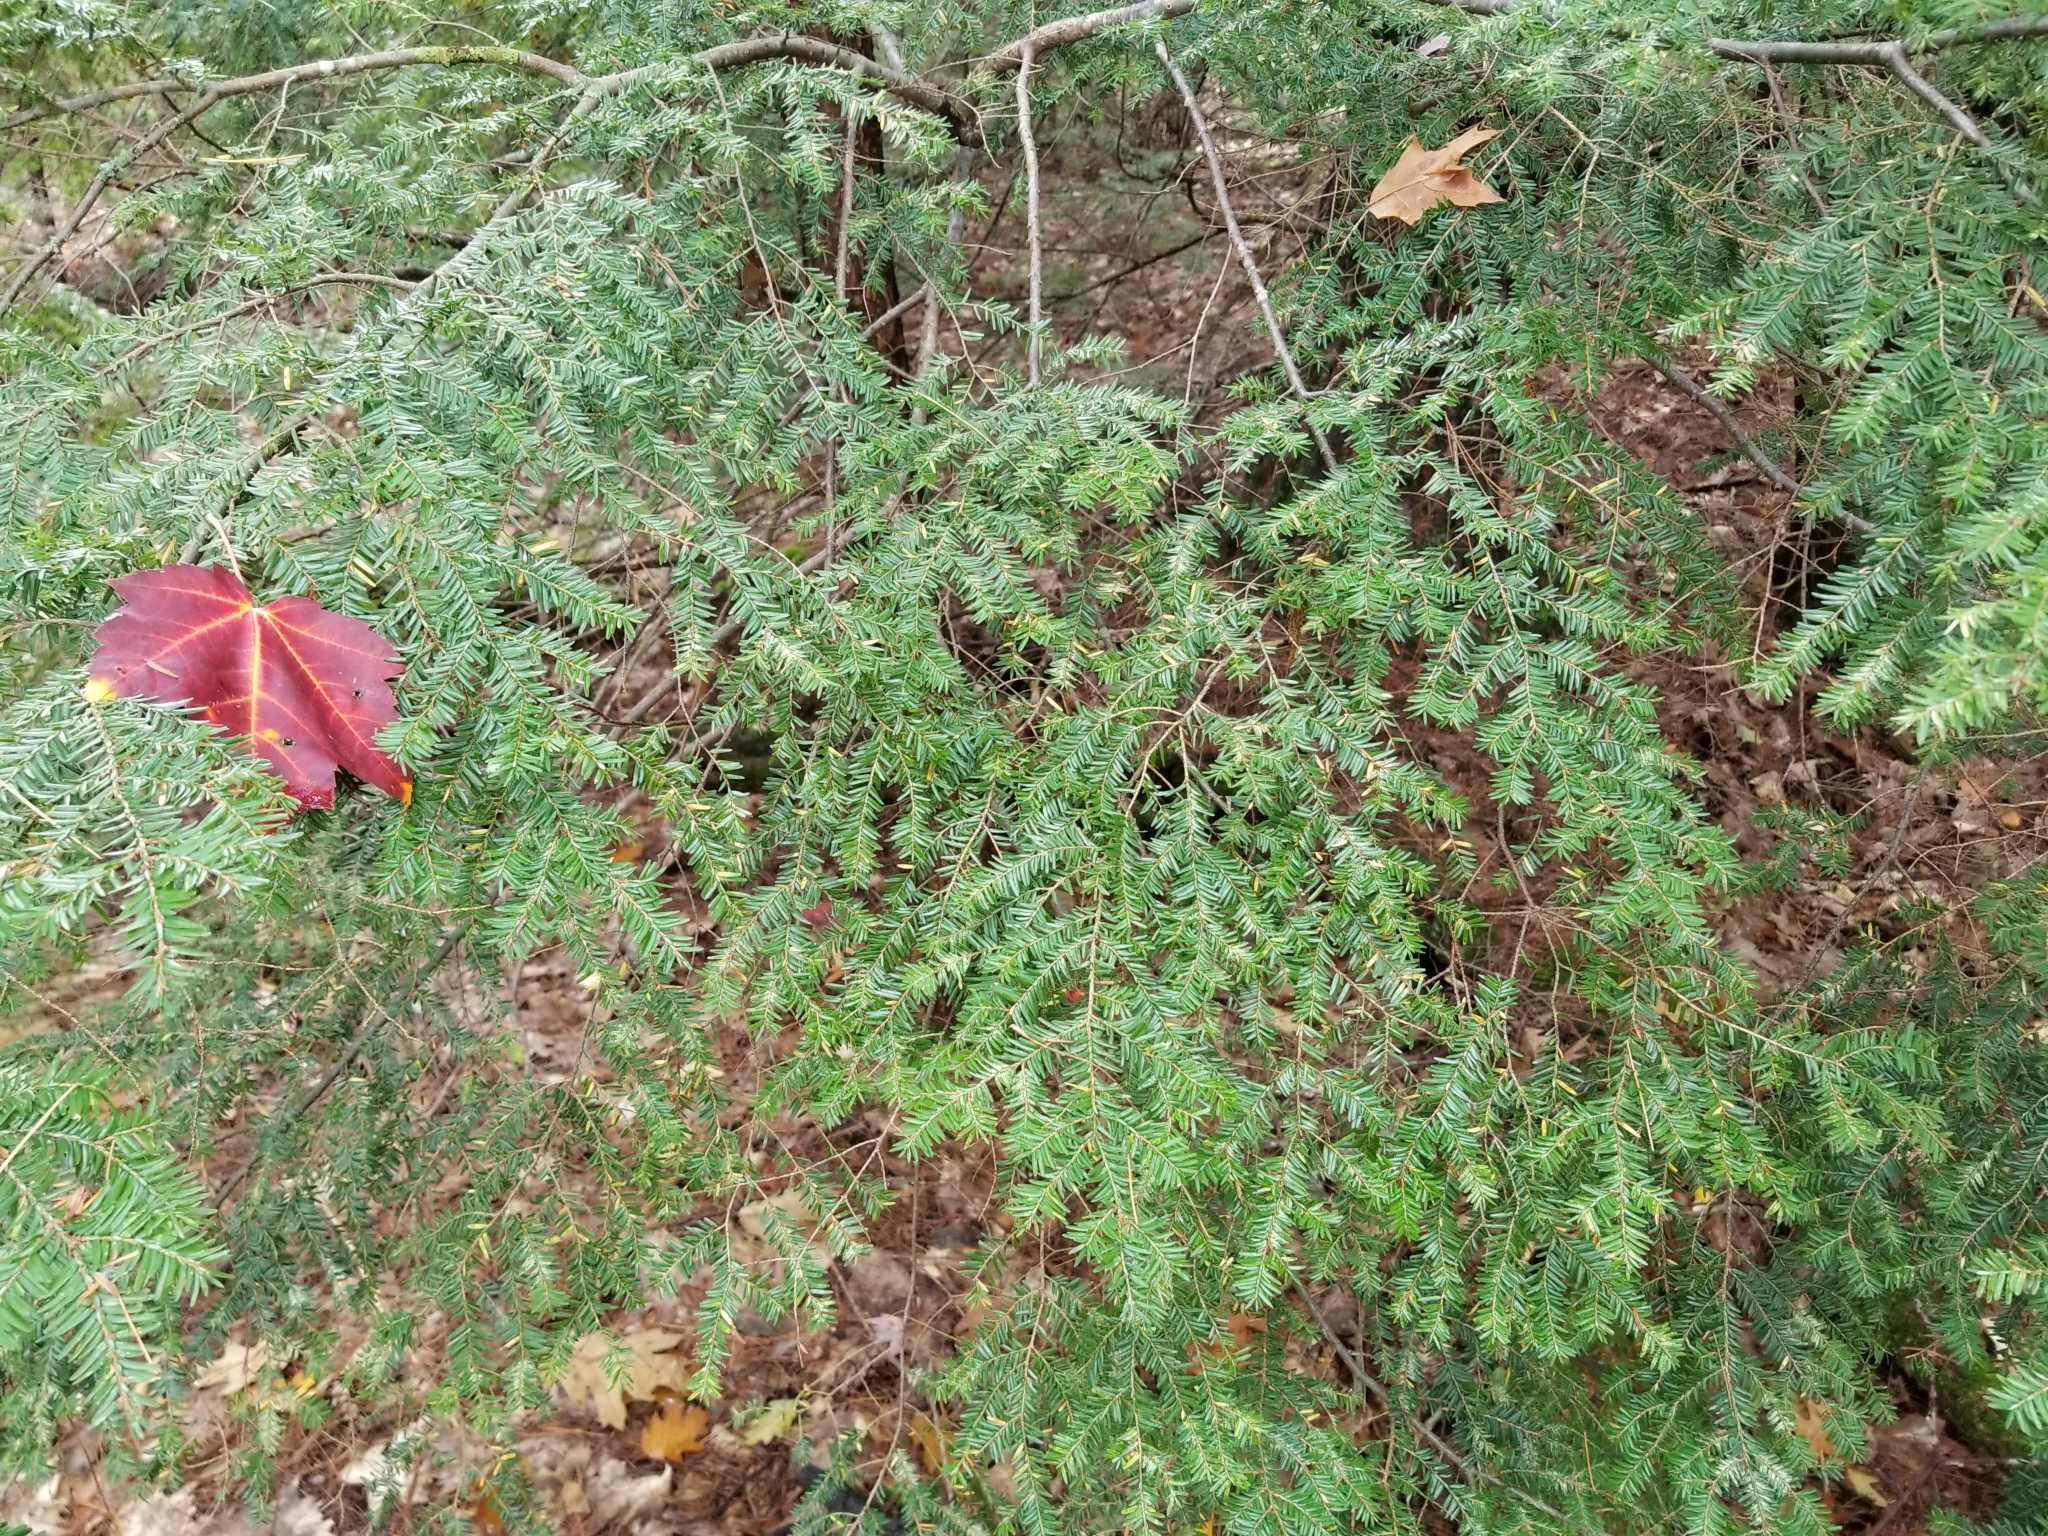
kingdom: Plantae
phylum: Tracheophyta
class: Pinopsida
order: Pinales
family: Pinaceae
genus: Tsuga
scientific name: Tsuga canadensis
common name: Eastern hemlock
